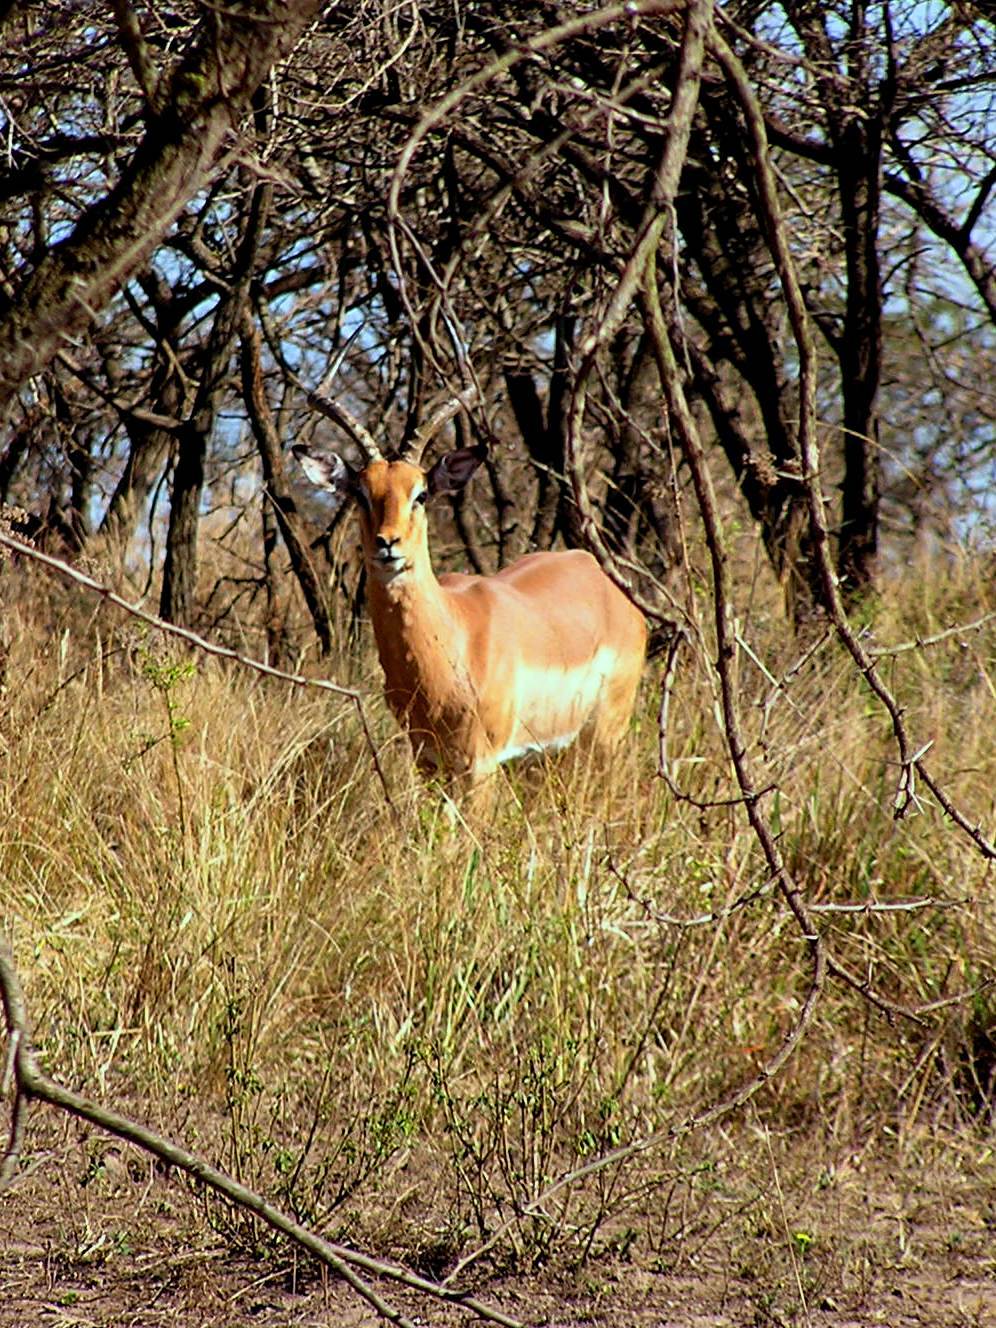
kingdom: Animalia
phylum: Chordata
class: Mammalia
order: Artiodactyla
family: Bovidae
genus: Aepyceros
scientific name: Aepyceros melampus
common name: Impala
